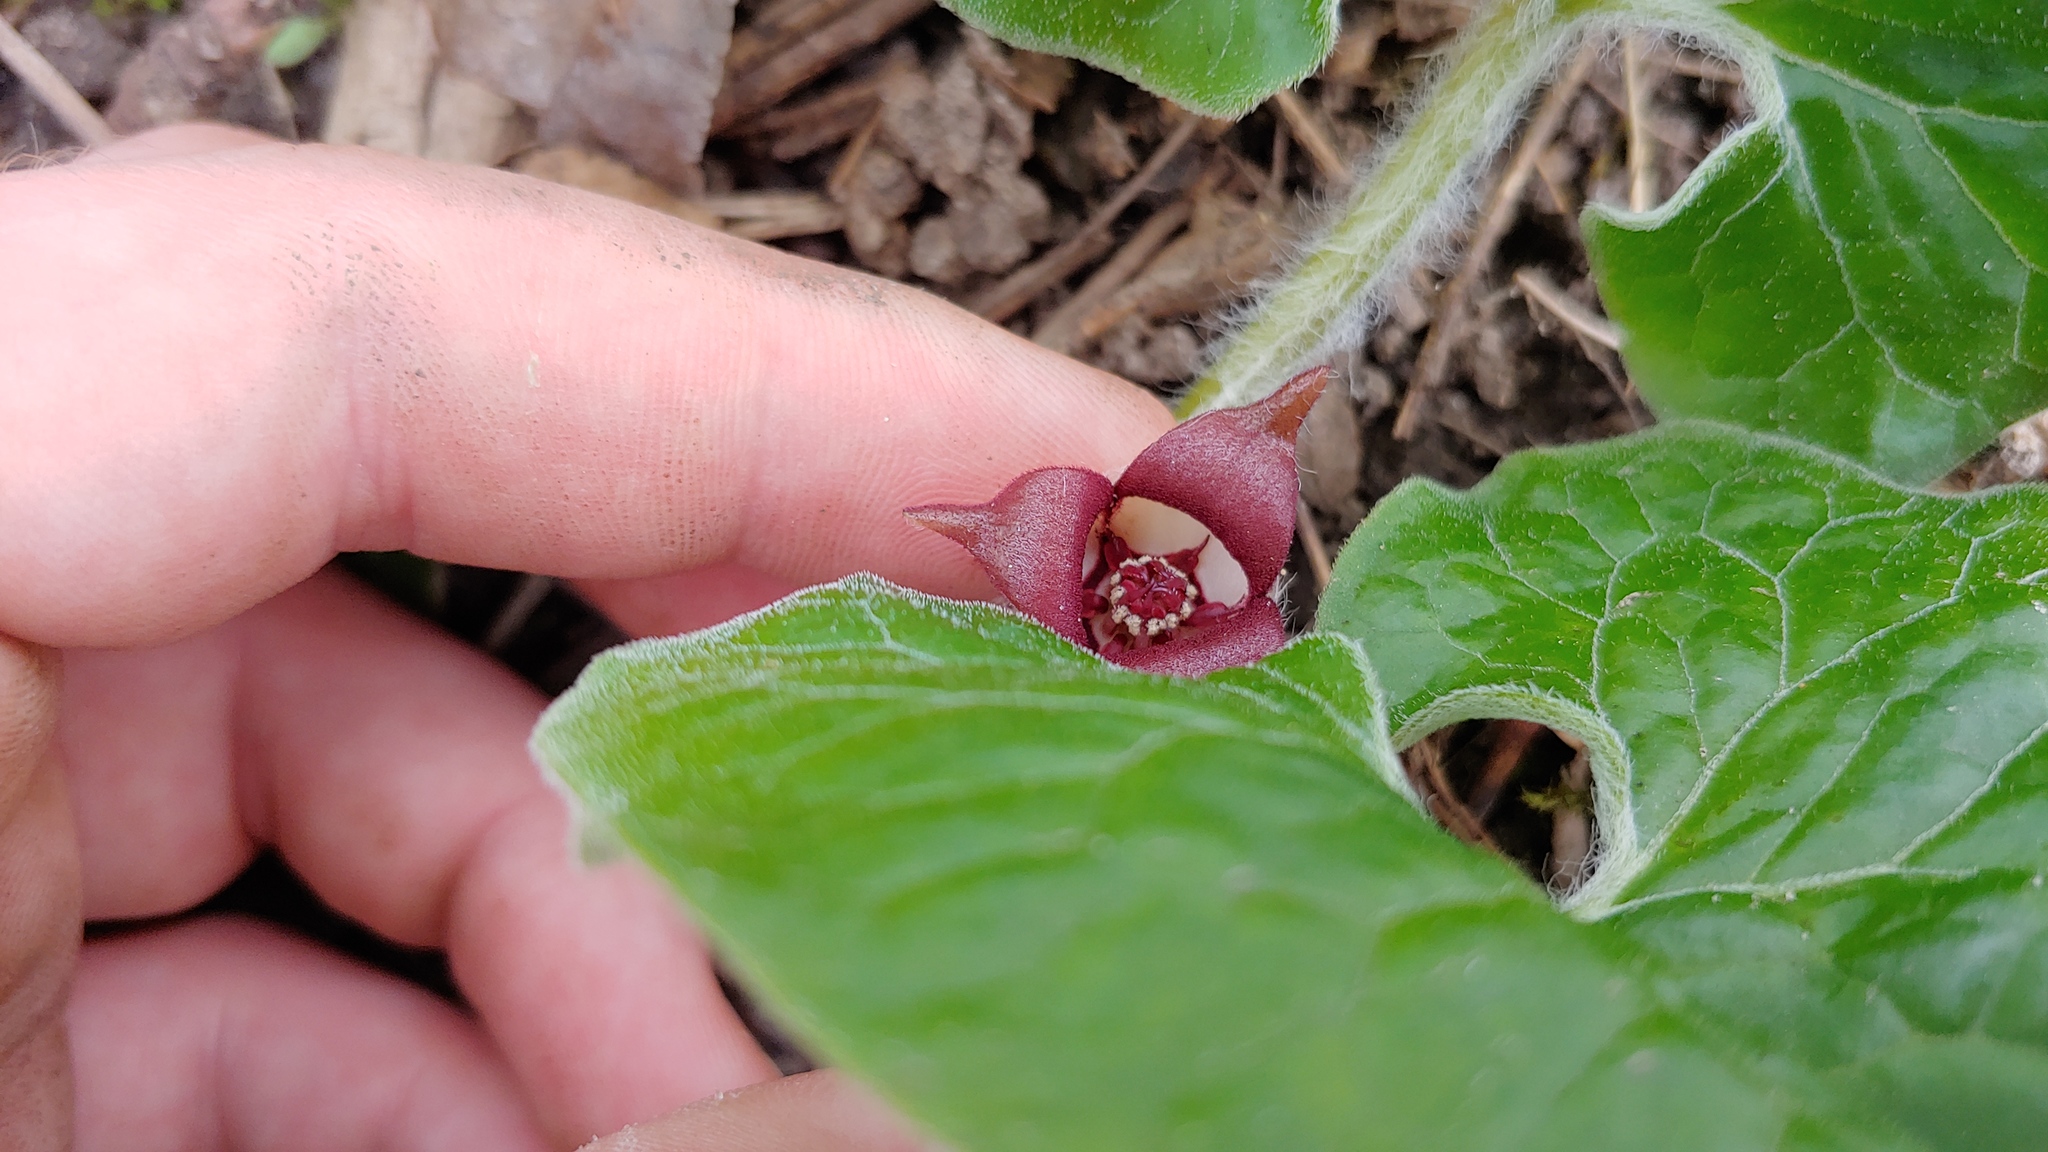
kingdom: Plantae
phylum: Tracheophyta
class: Magnoliopsida
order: Piperales
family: Aristolochiaceae
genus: Asarum
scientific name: Asarum canadense
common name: Wild ginger
